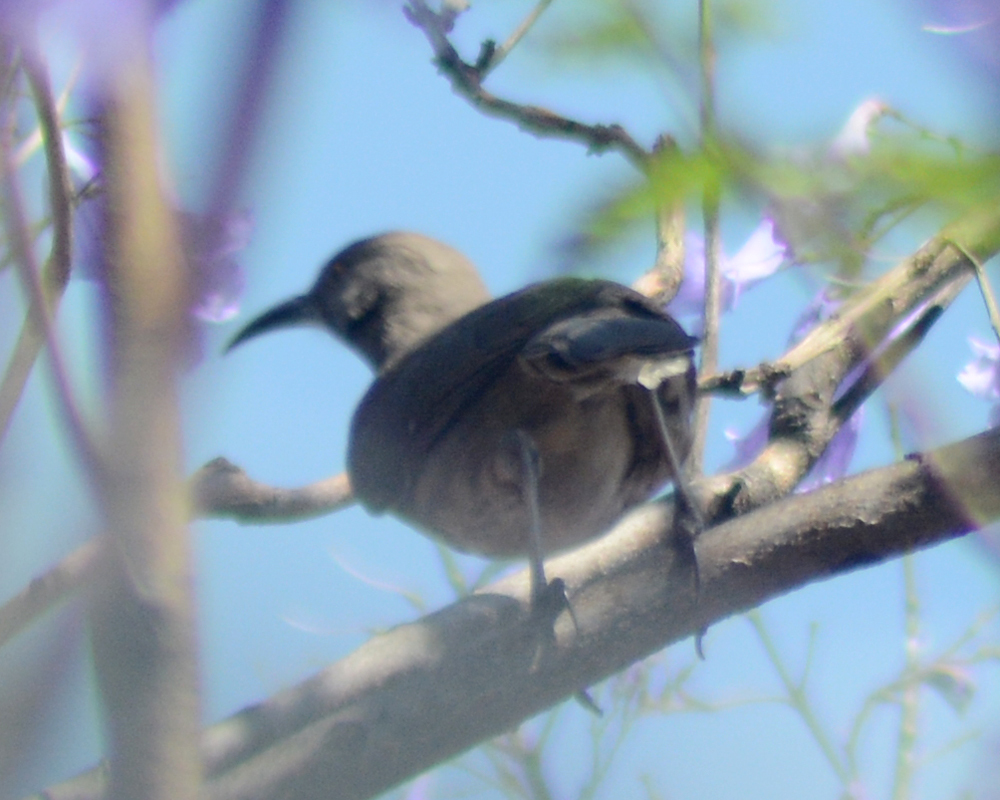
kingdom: Animalia
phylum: Chordata
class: Aves
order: Passeriformes
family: Mimidae
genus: Toxostoma
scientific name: Toxostoma curvirostre
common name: Curve-billed thrasher
